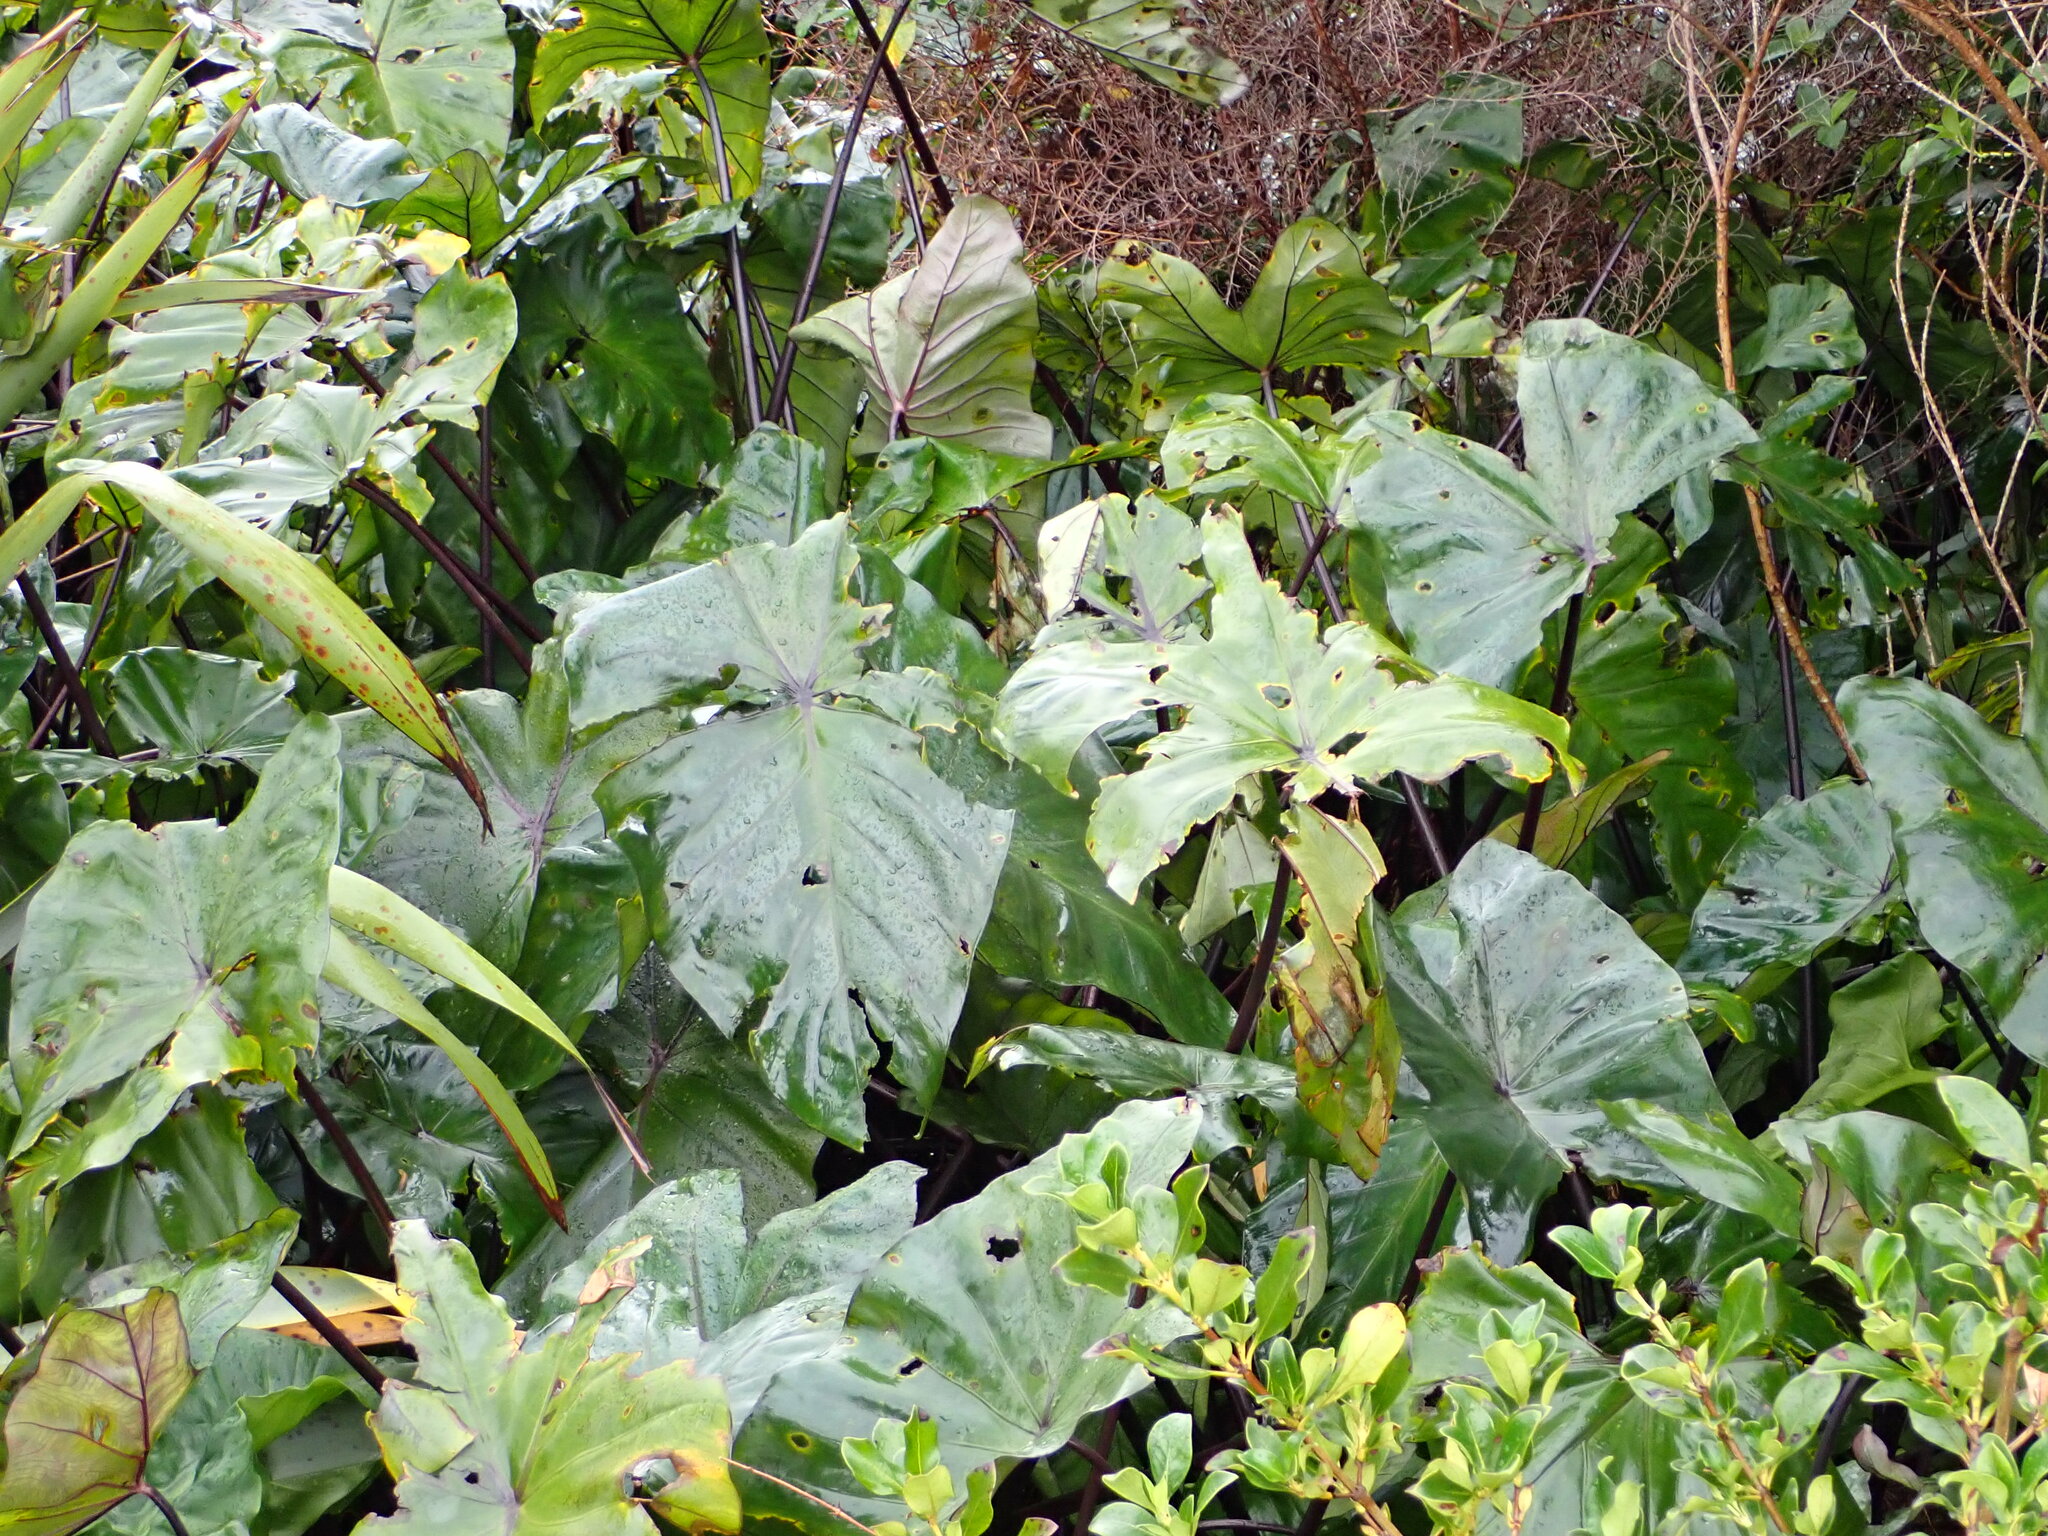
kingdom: Plantae
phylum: Tracheophyta
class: Liliopsida
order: Alismatales
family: Araceae
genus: Colocasia
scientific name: Colocasia esculenta
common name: Taro
